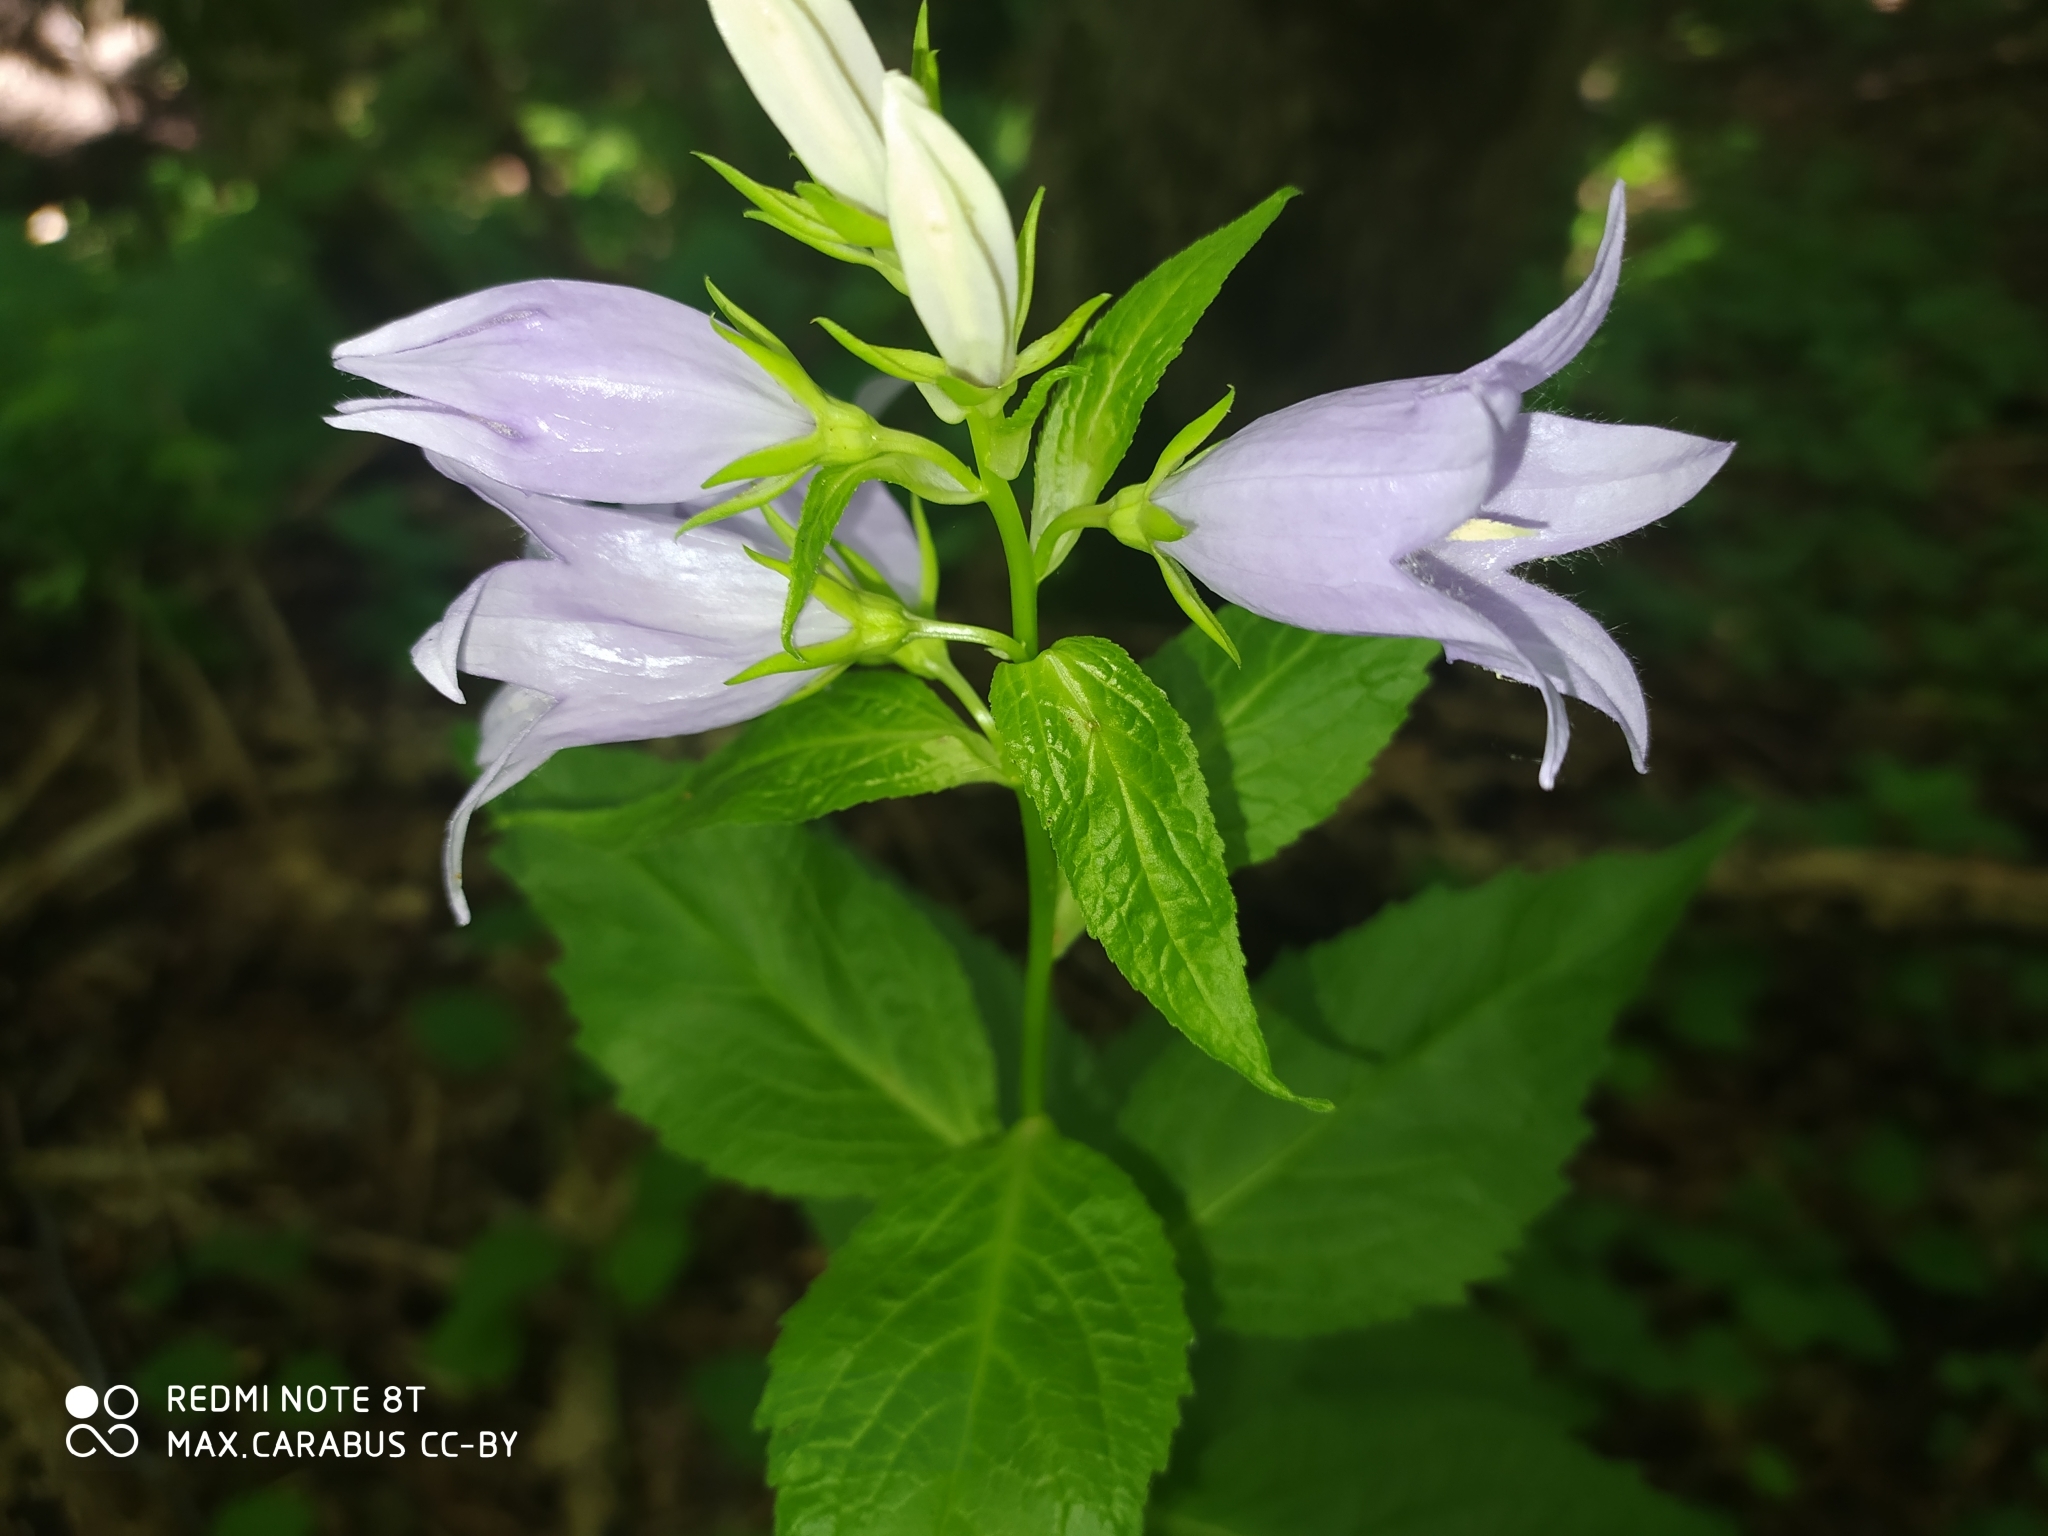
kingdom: Plantae
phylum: Tracheophyta
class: Magnoliopsida
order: Asterales
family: Campanulaceae
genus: Campanula
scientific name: Campanula latifolia
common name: Giant bellflower
